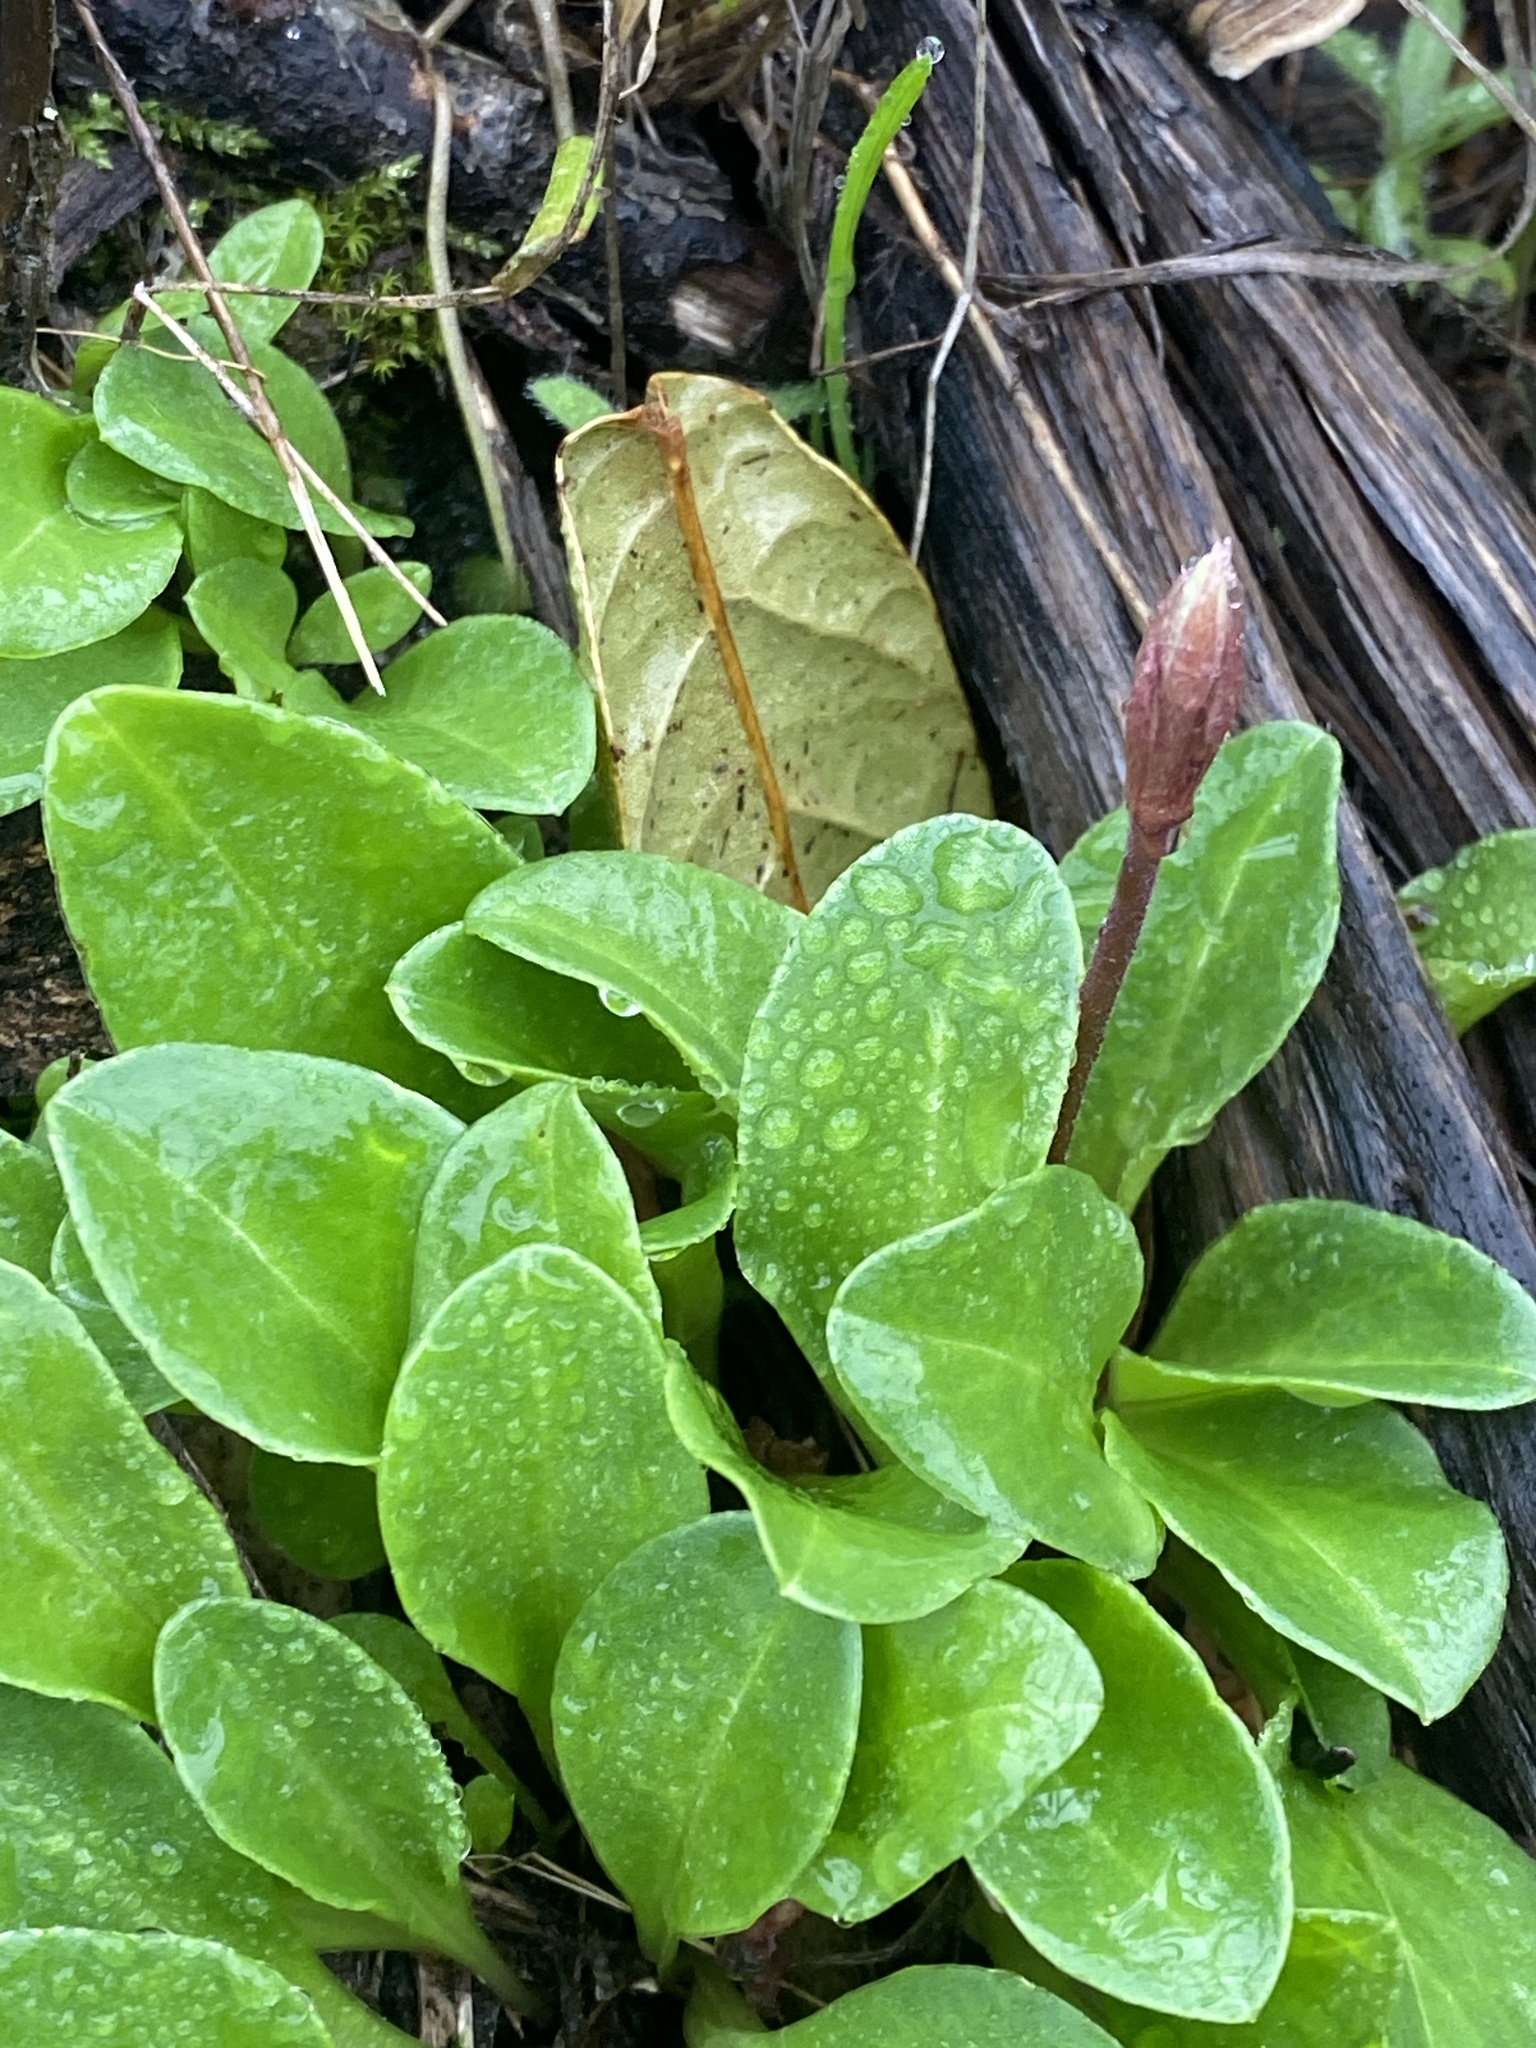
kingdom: Plantae
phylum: Tracheophyta
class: Magnoliopsida
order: Ericales
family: Primulaceae
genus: Dodecatheon
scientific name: Dodecatheon hendersonii
